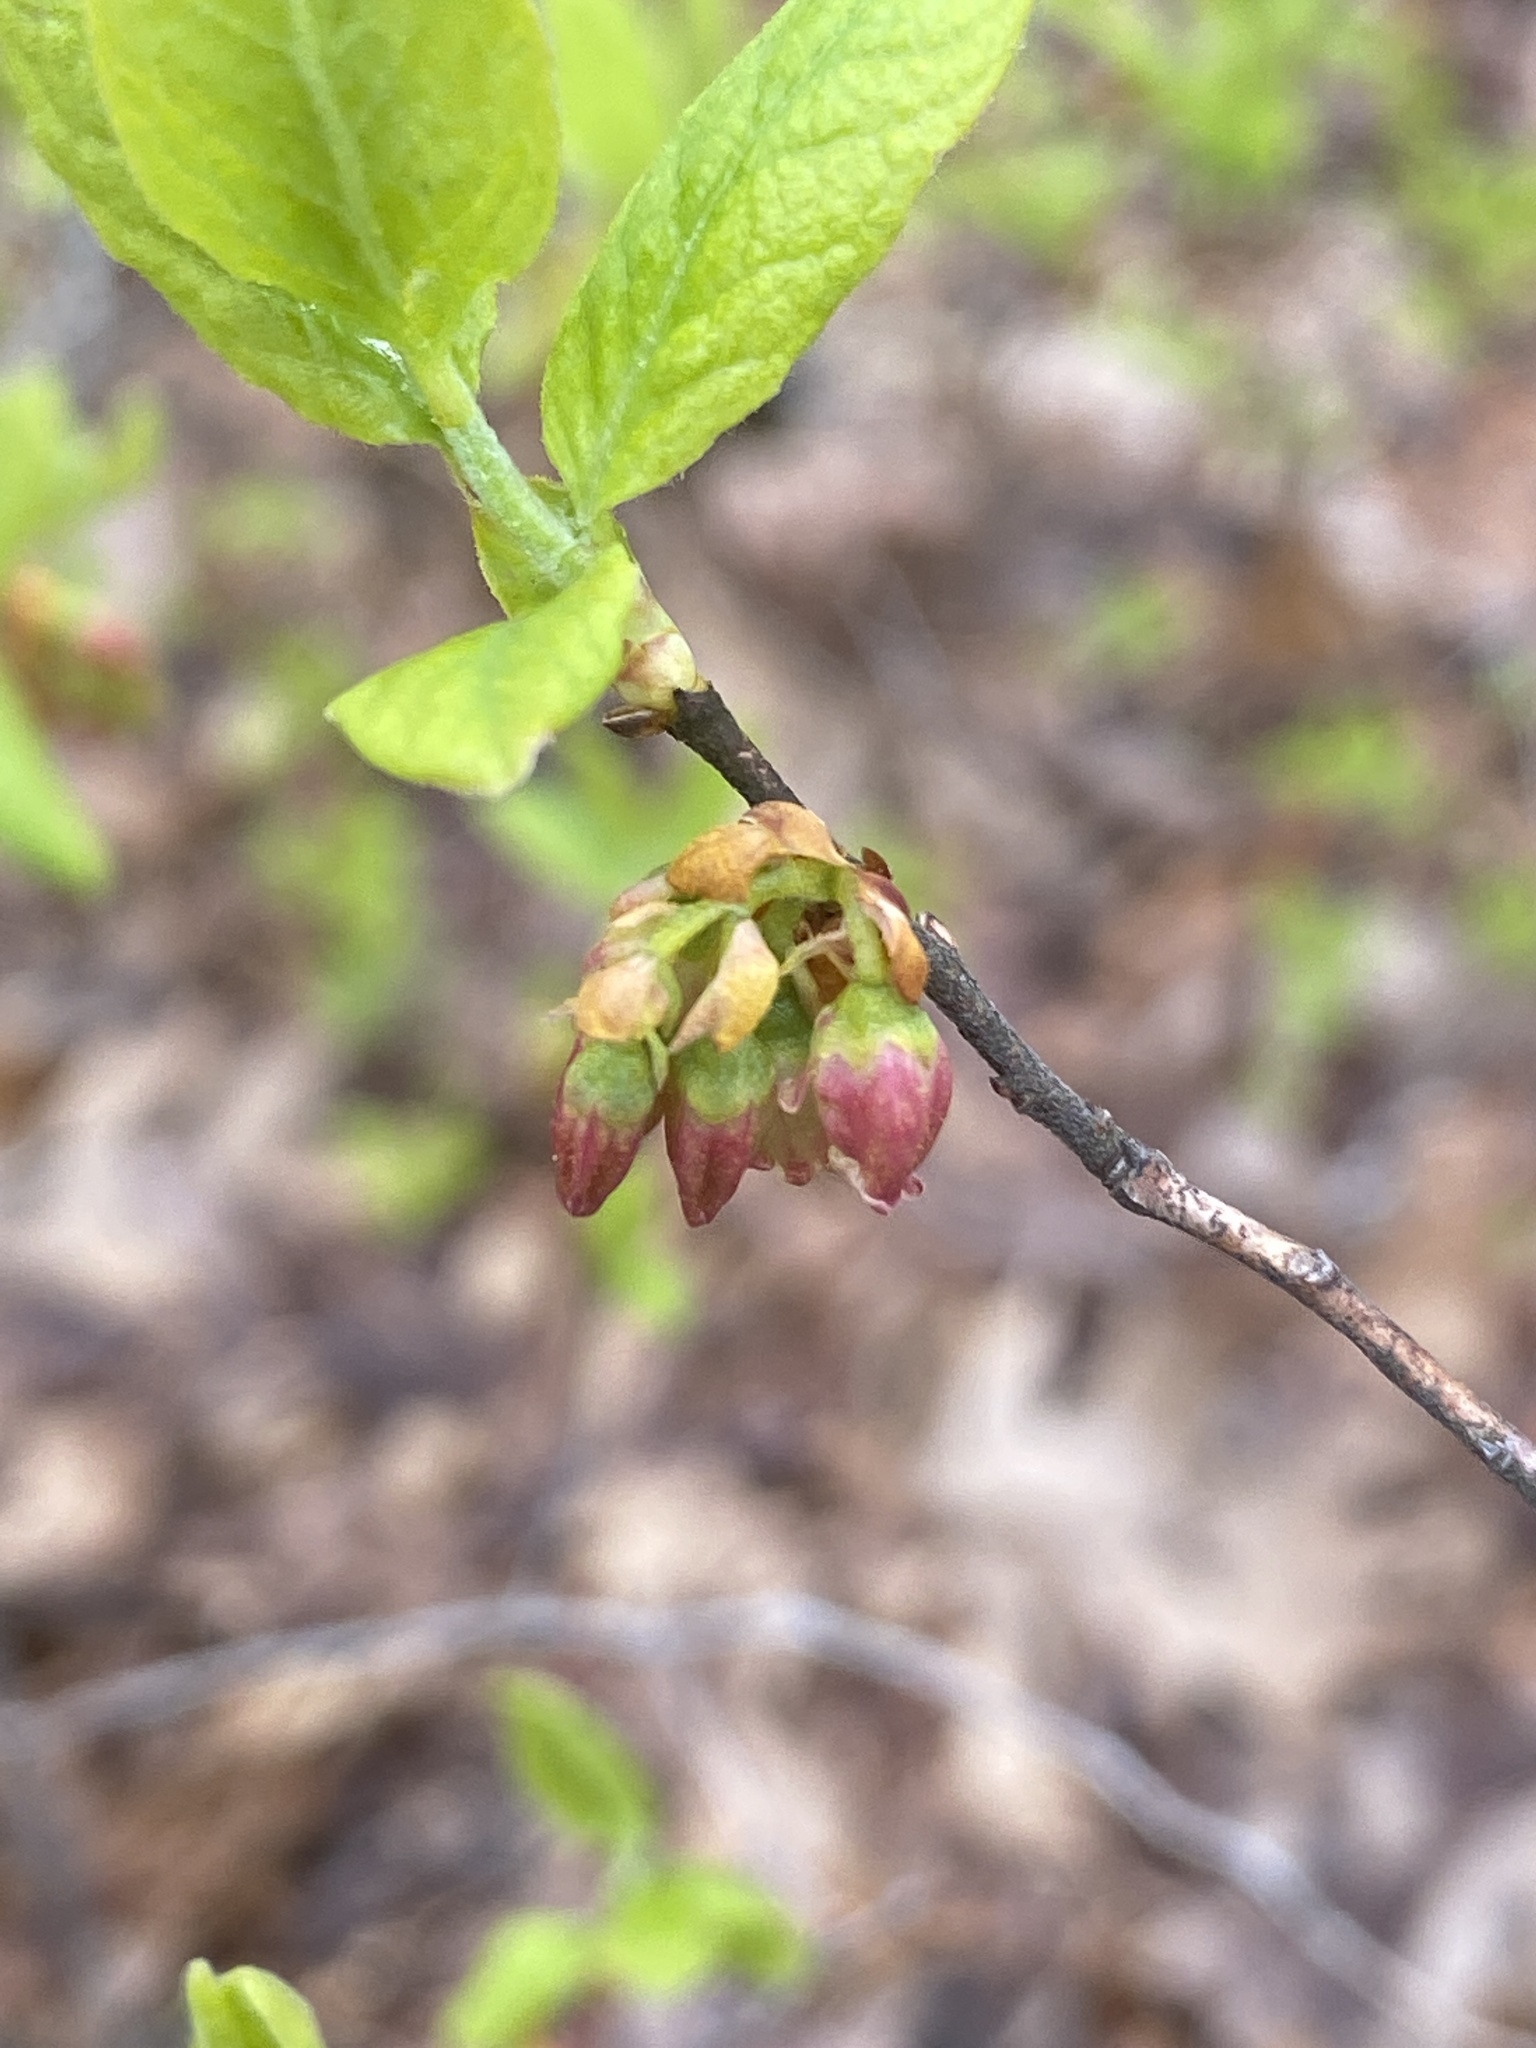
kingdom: Plantae
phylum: Tracheophyta
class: Magnoliopsida
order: Ericales
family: Ericaceae
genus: Gaylussacia
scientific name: Gaylussacia baccata
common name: Black huckleberry
